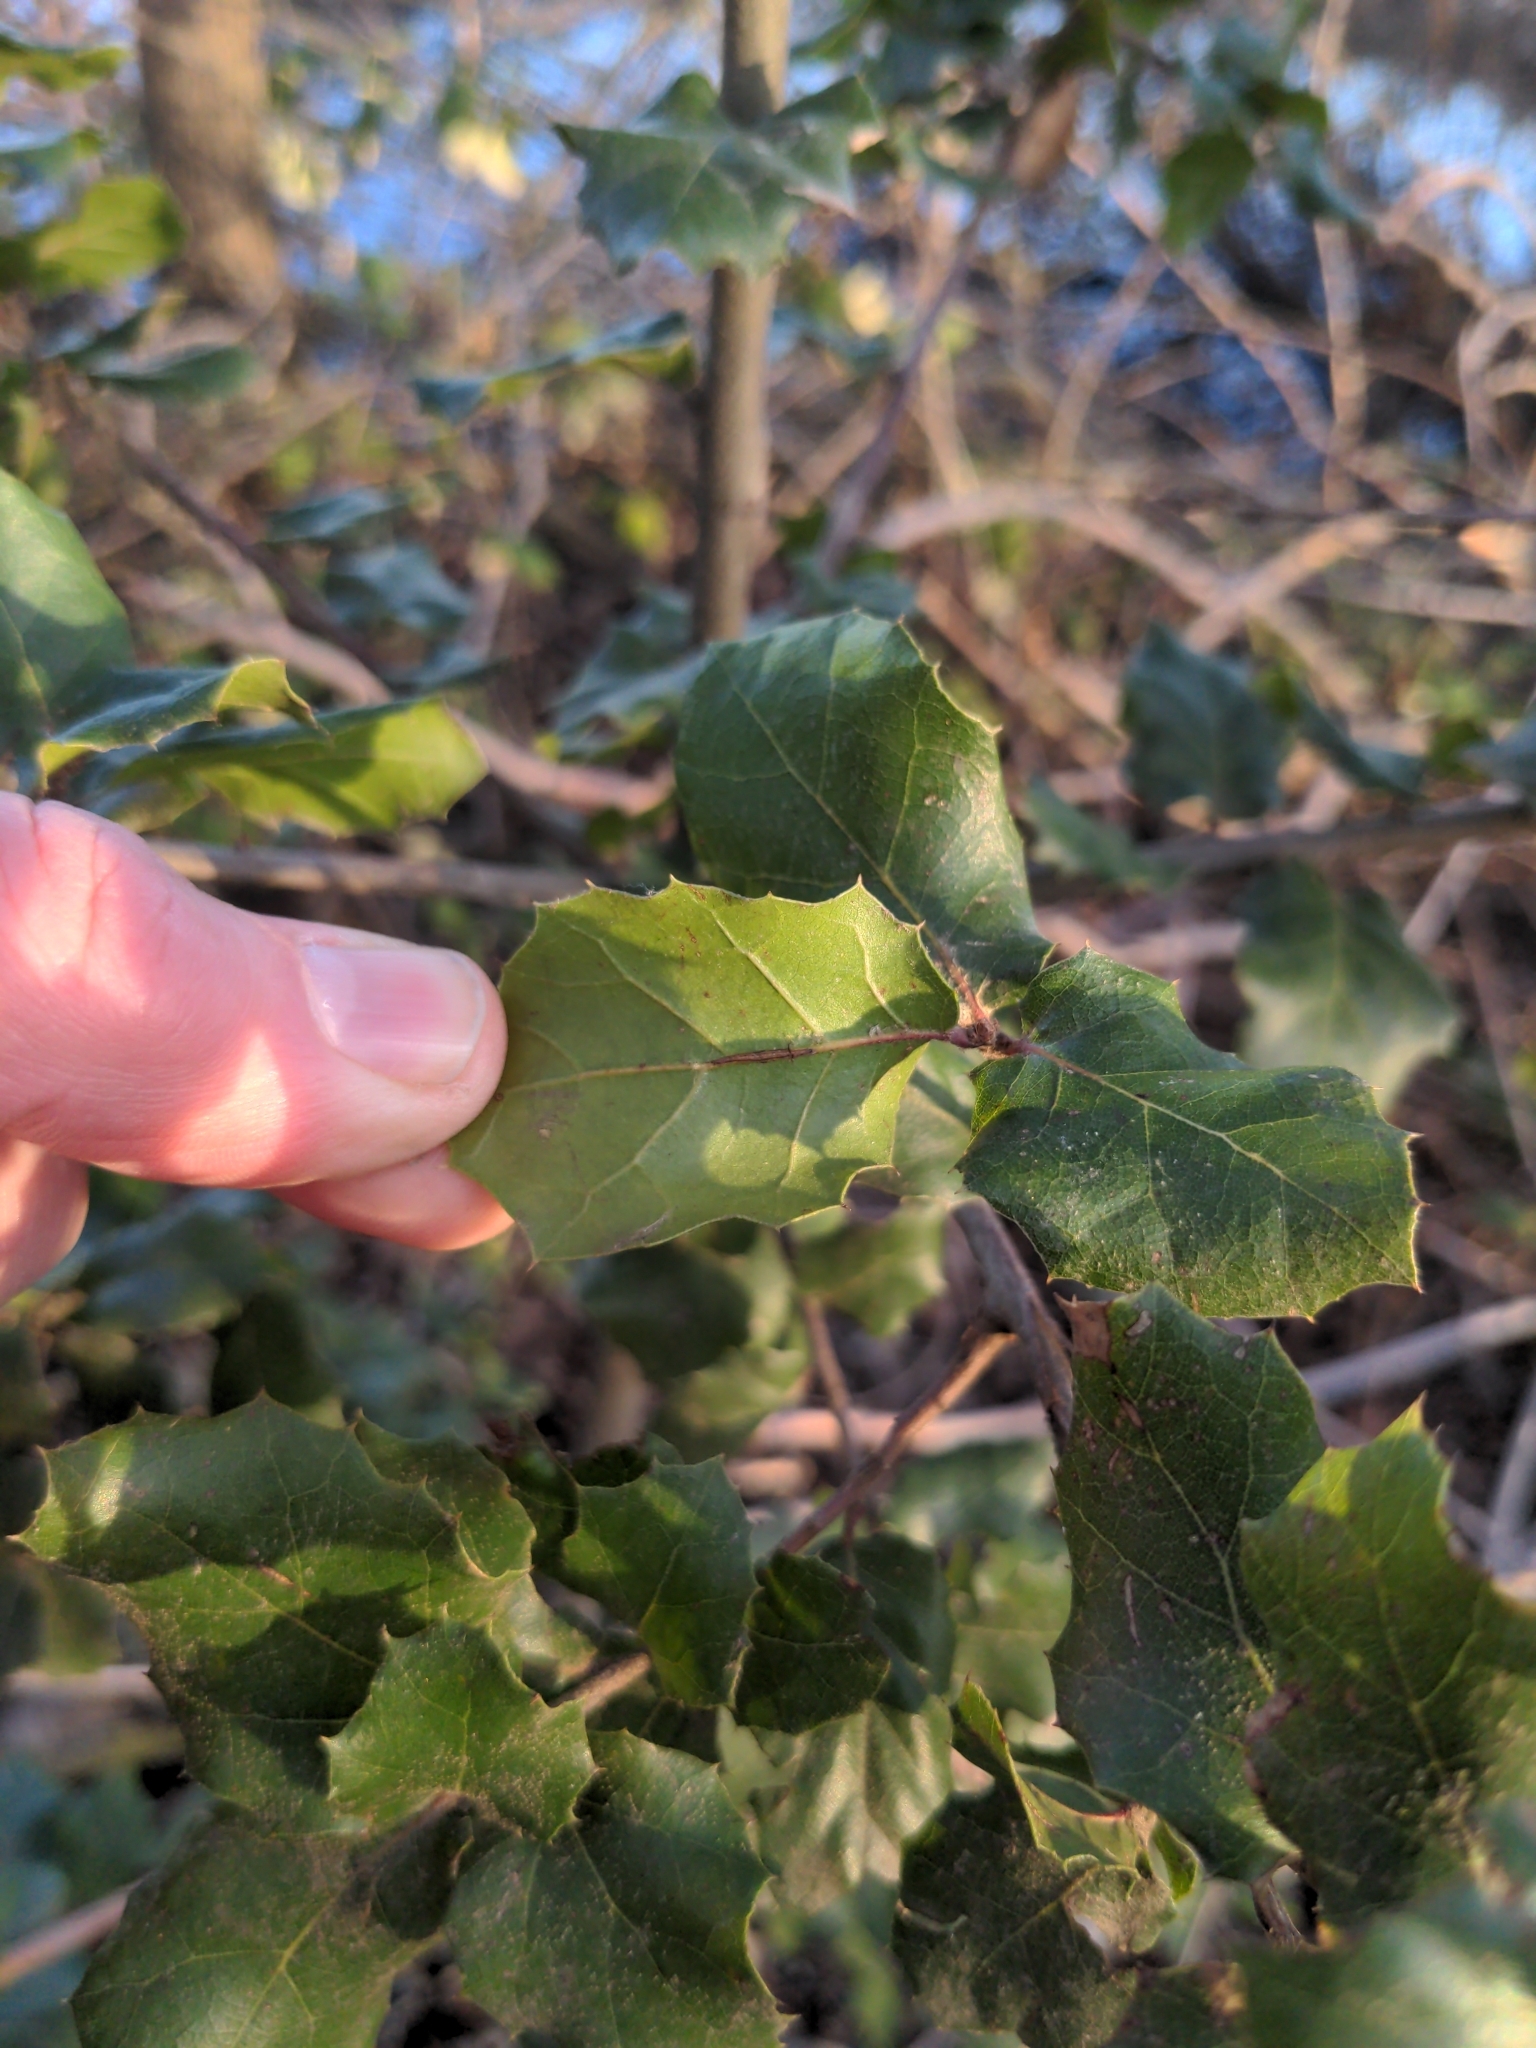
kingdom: Plantae
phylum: Tracheophyta
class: Magnoliopsida
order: Fagales
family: Fagaceae
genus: Quercus
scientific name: Quercus agrifolia
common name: California live oak
